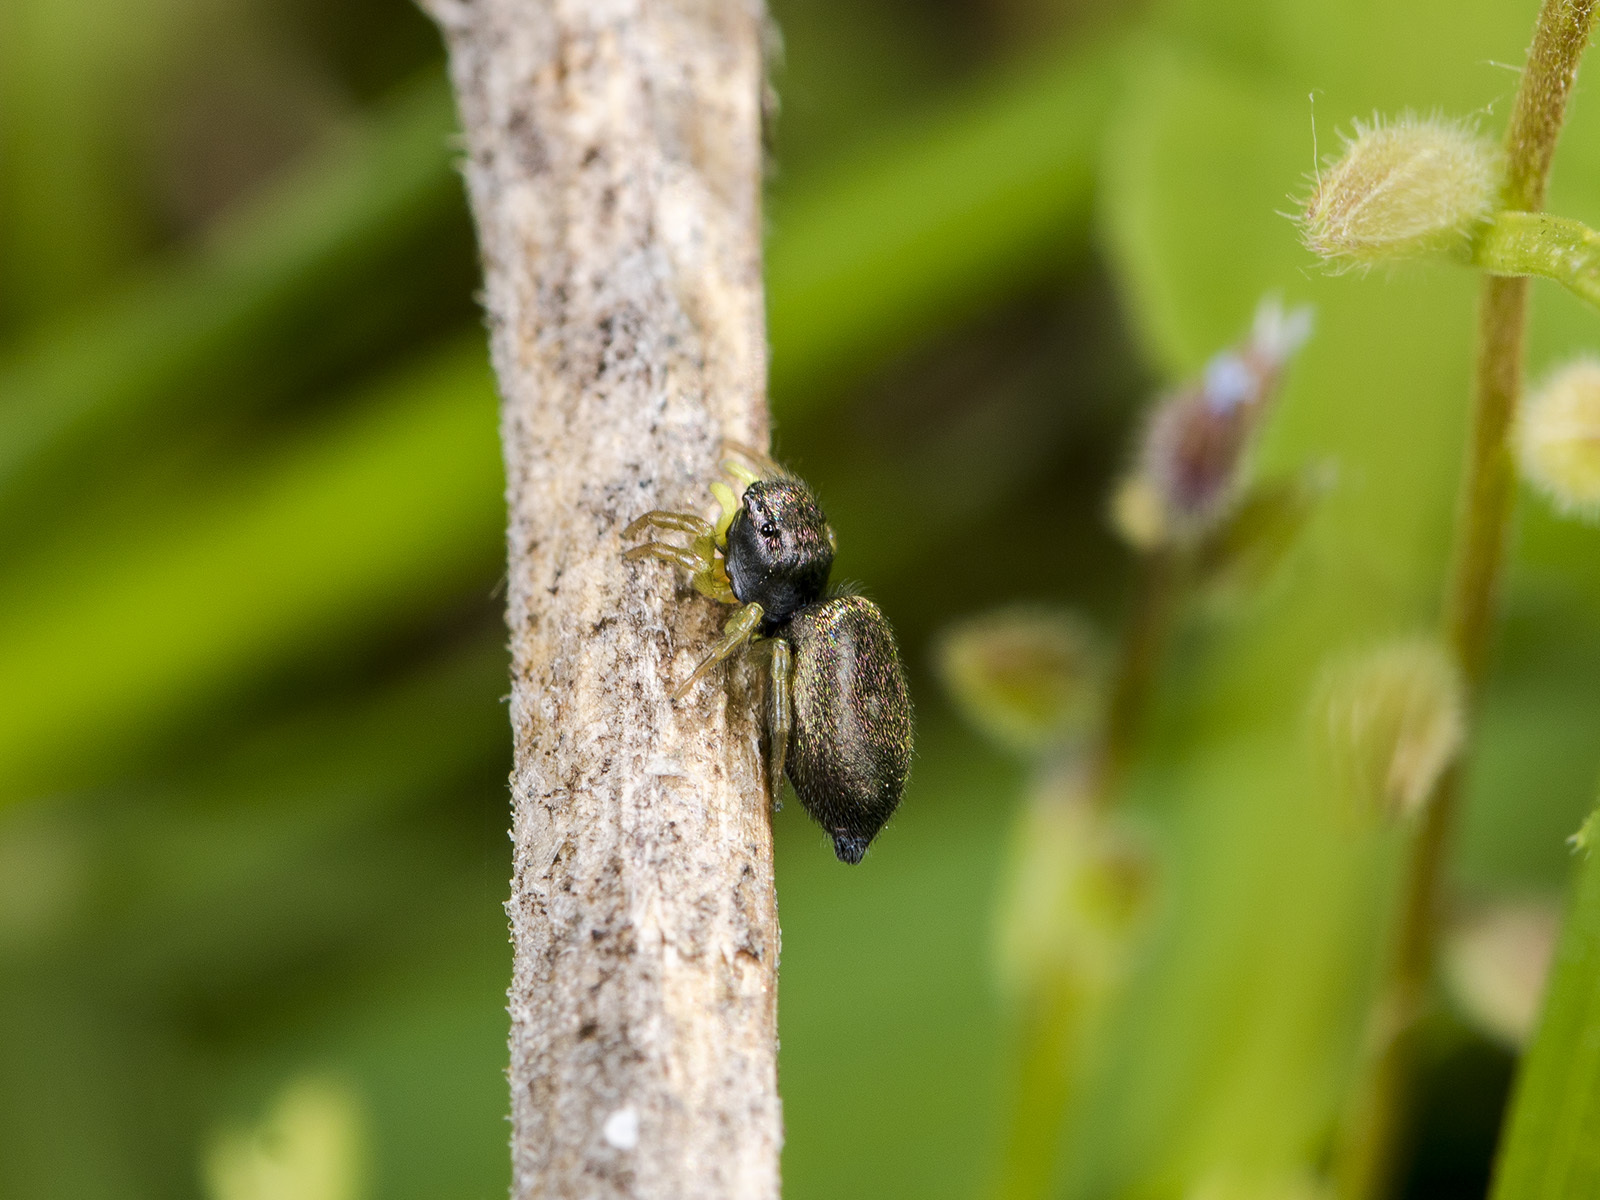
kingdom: Animalia
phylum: Arthropoda
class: Arachnida
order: Araneae
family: Salticidae
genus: Heliophanus
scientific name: Heliophanus forcipifer
